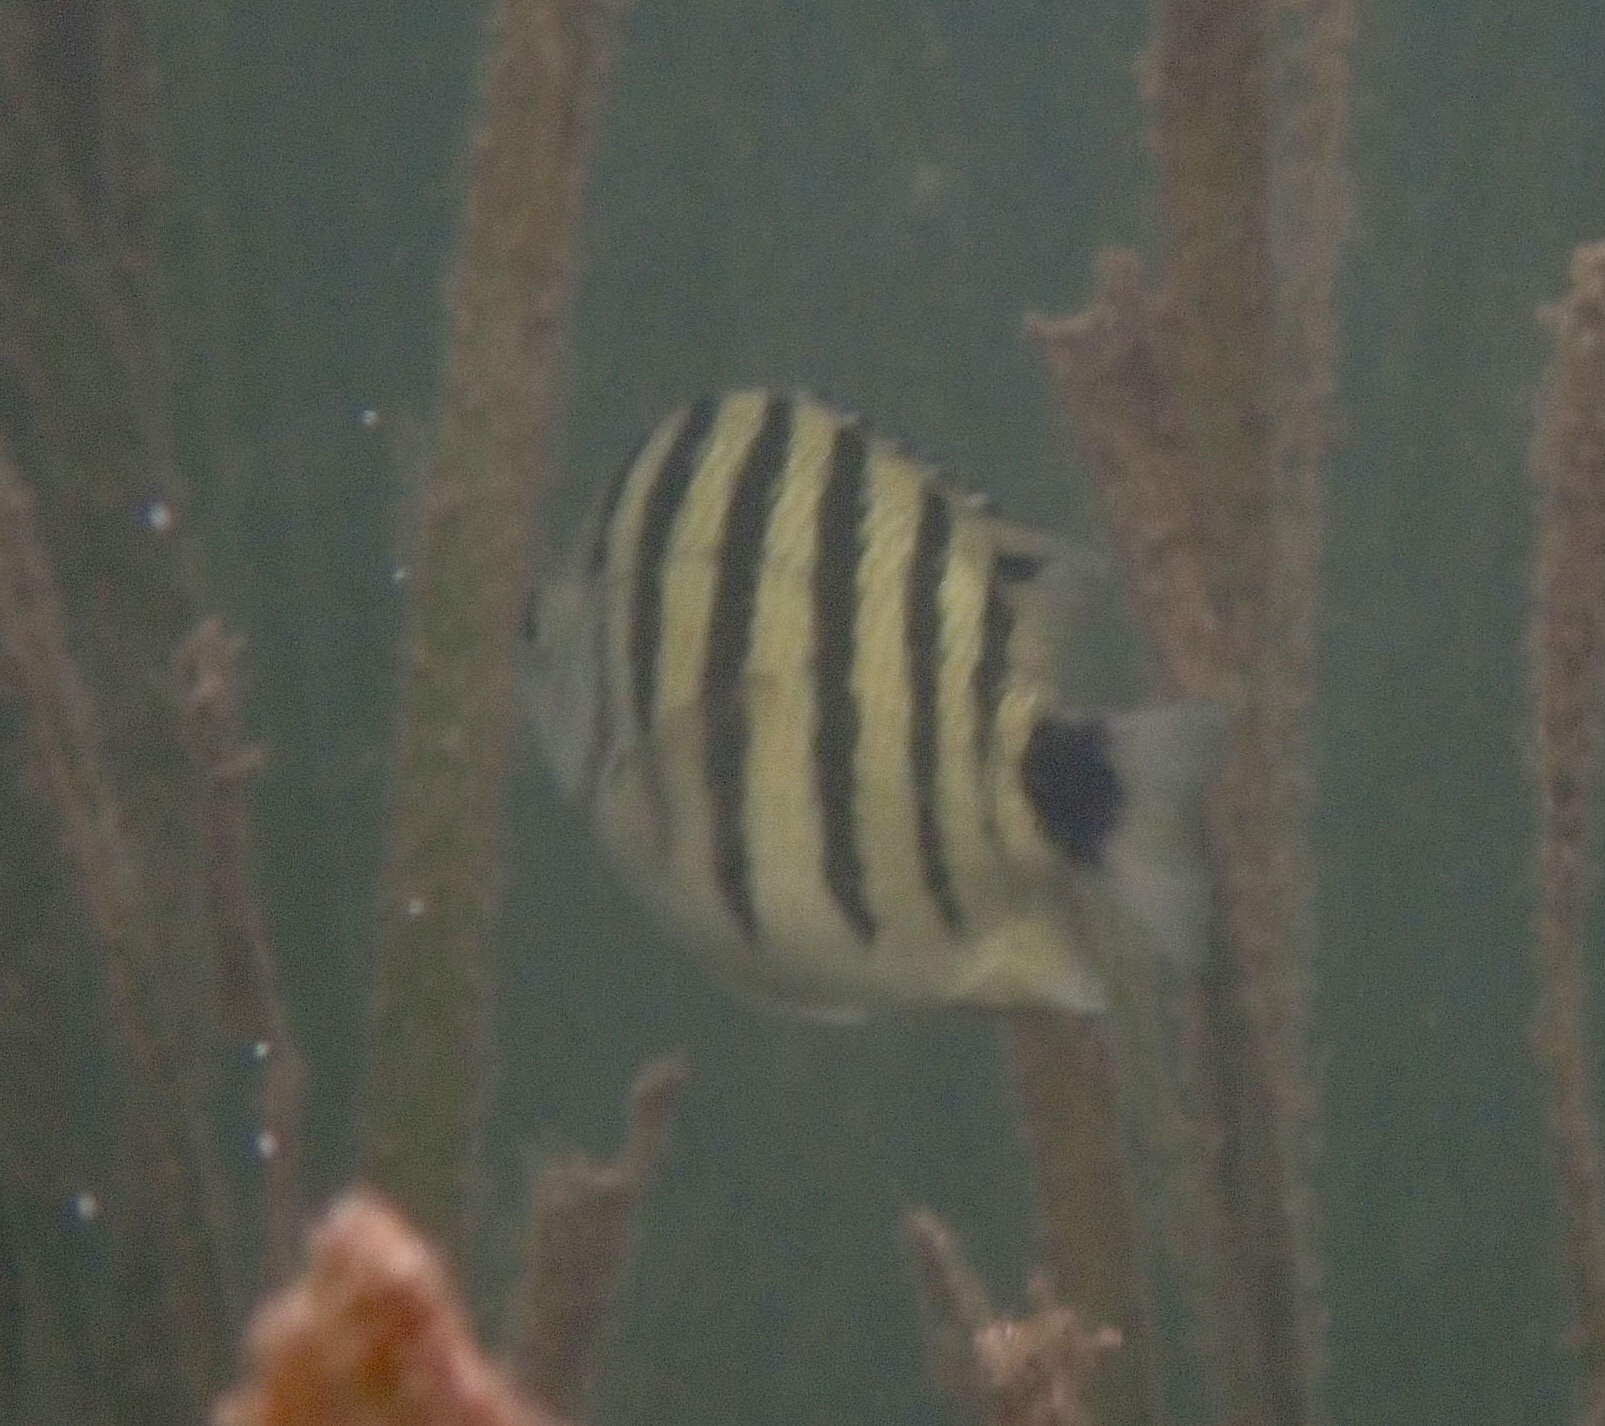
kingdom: Animalia
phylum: Chordata
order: Perciformes
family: Pomacentridae
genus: Abudefduf
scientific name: Abudefduf lorenzi
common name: Black-tail sergeant
